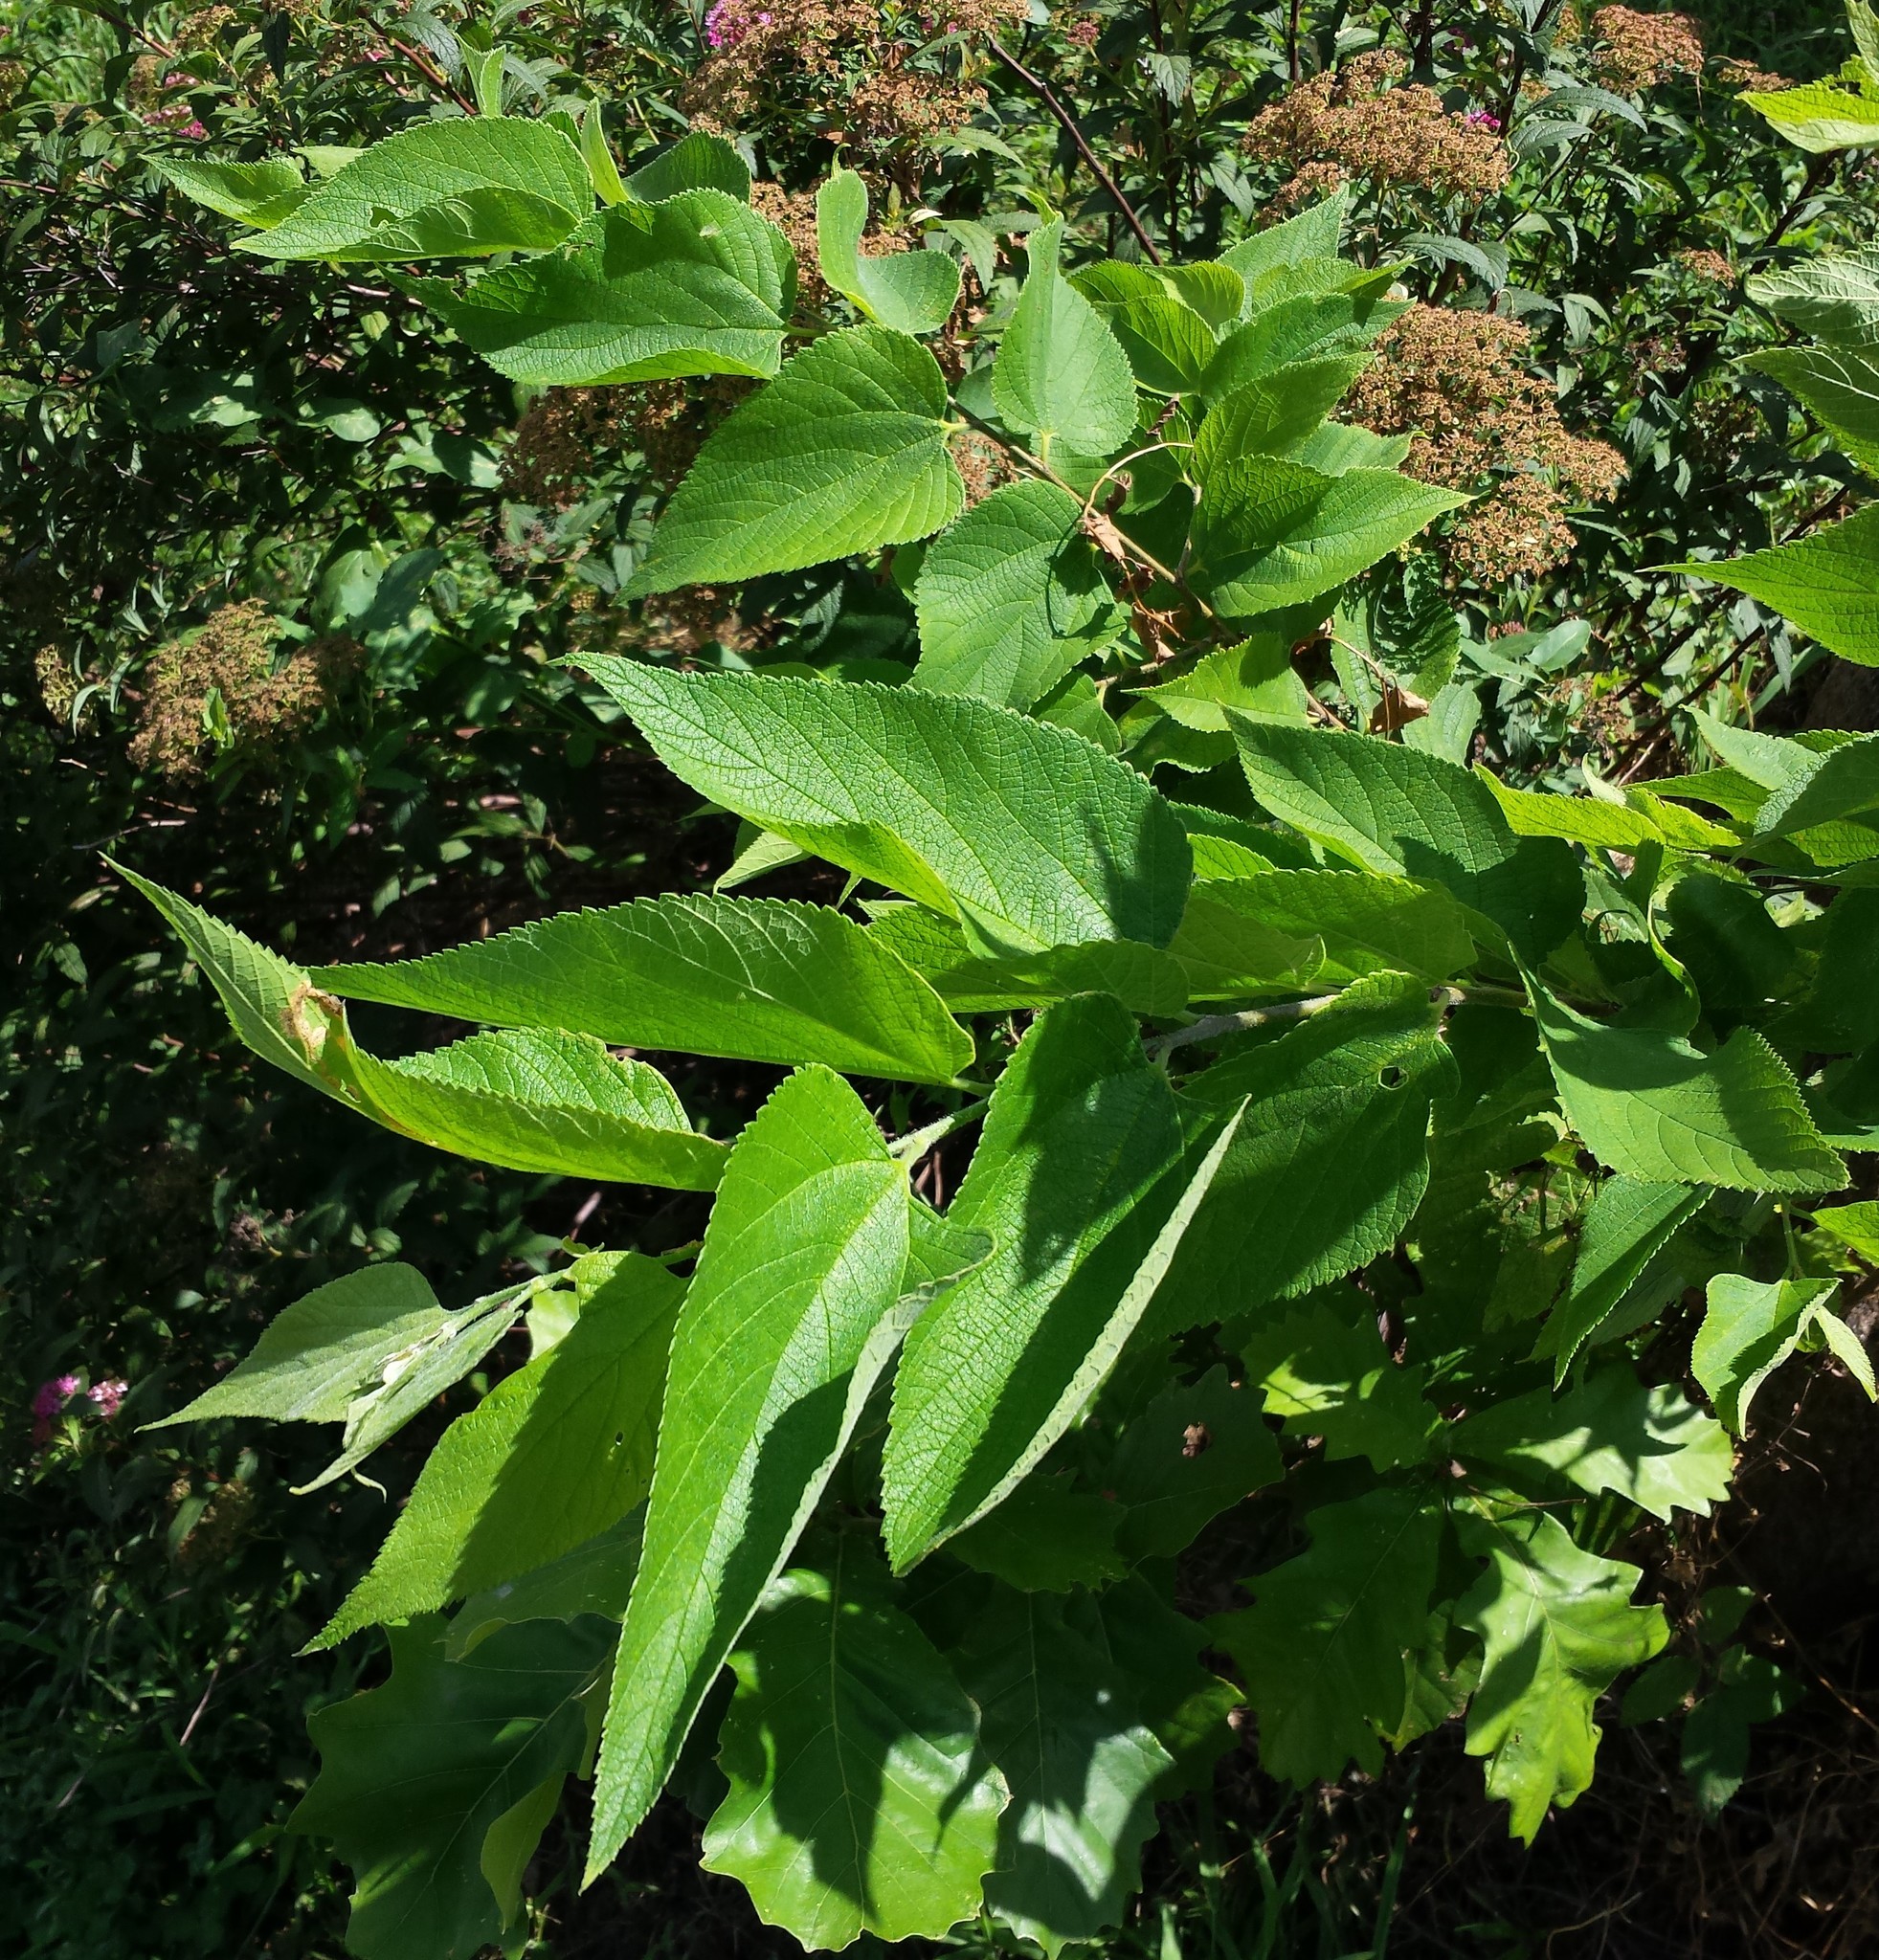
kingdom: Plantae
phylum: Tracheophyta
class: Magnoliopsida
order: Rosales
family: Cannabaceae
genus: Celtis
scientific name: Celtis occidentalis
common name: Common hackberry
